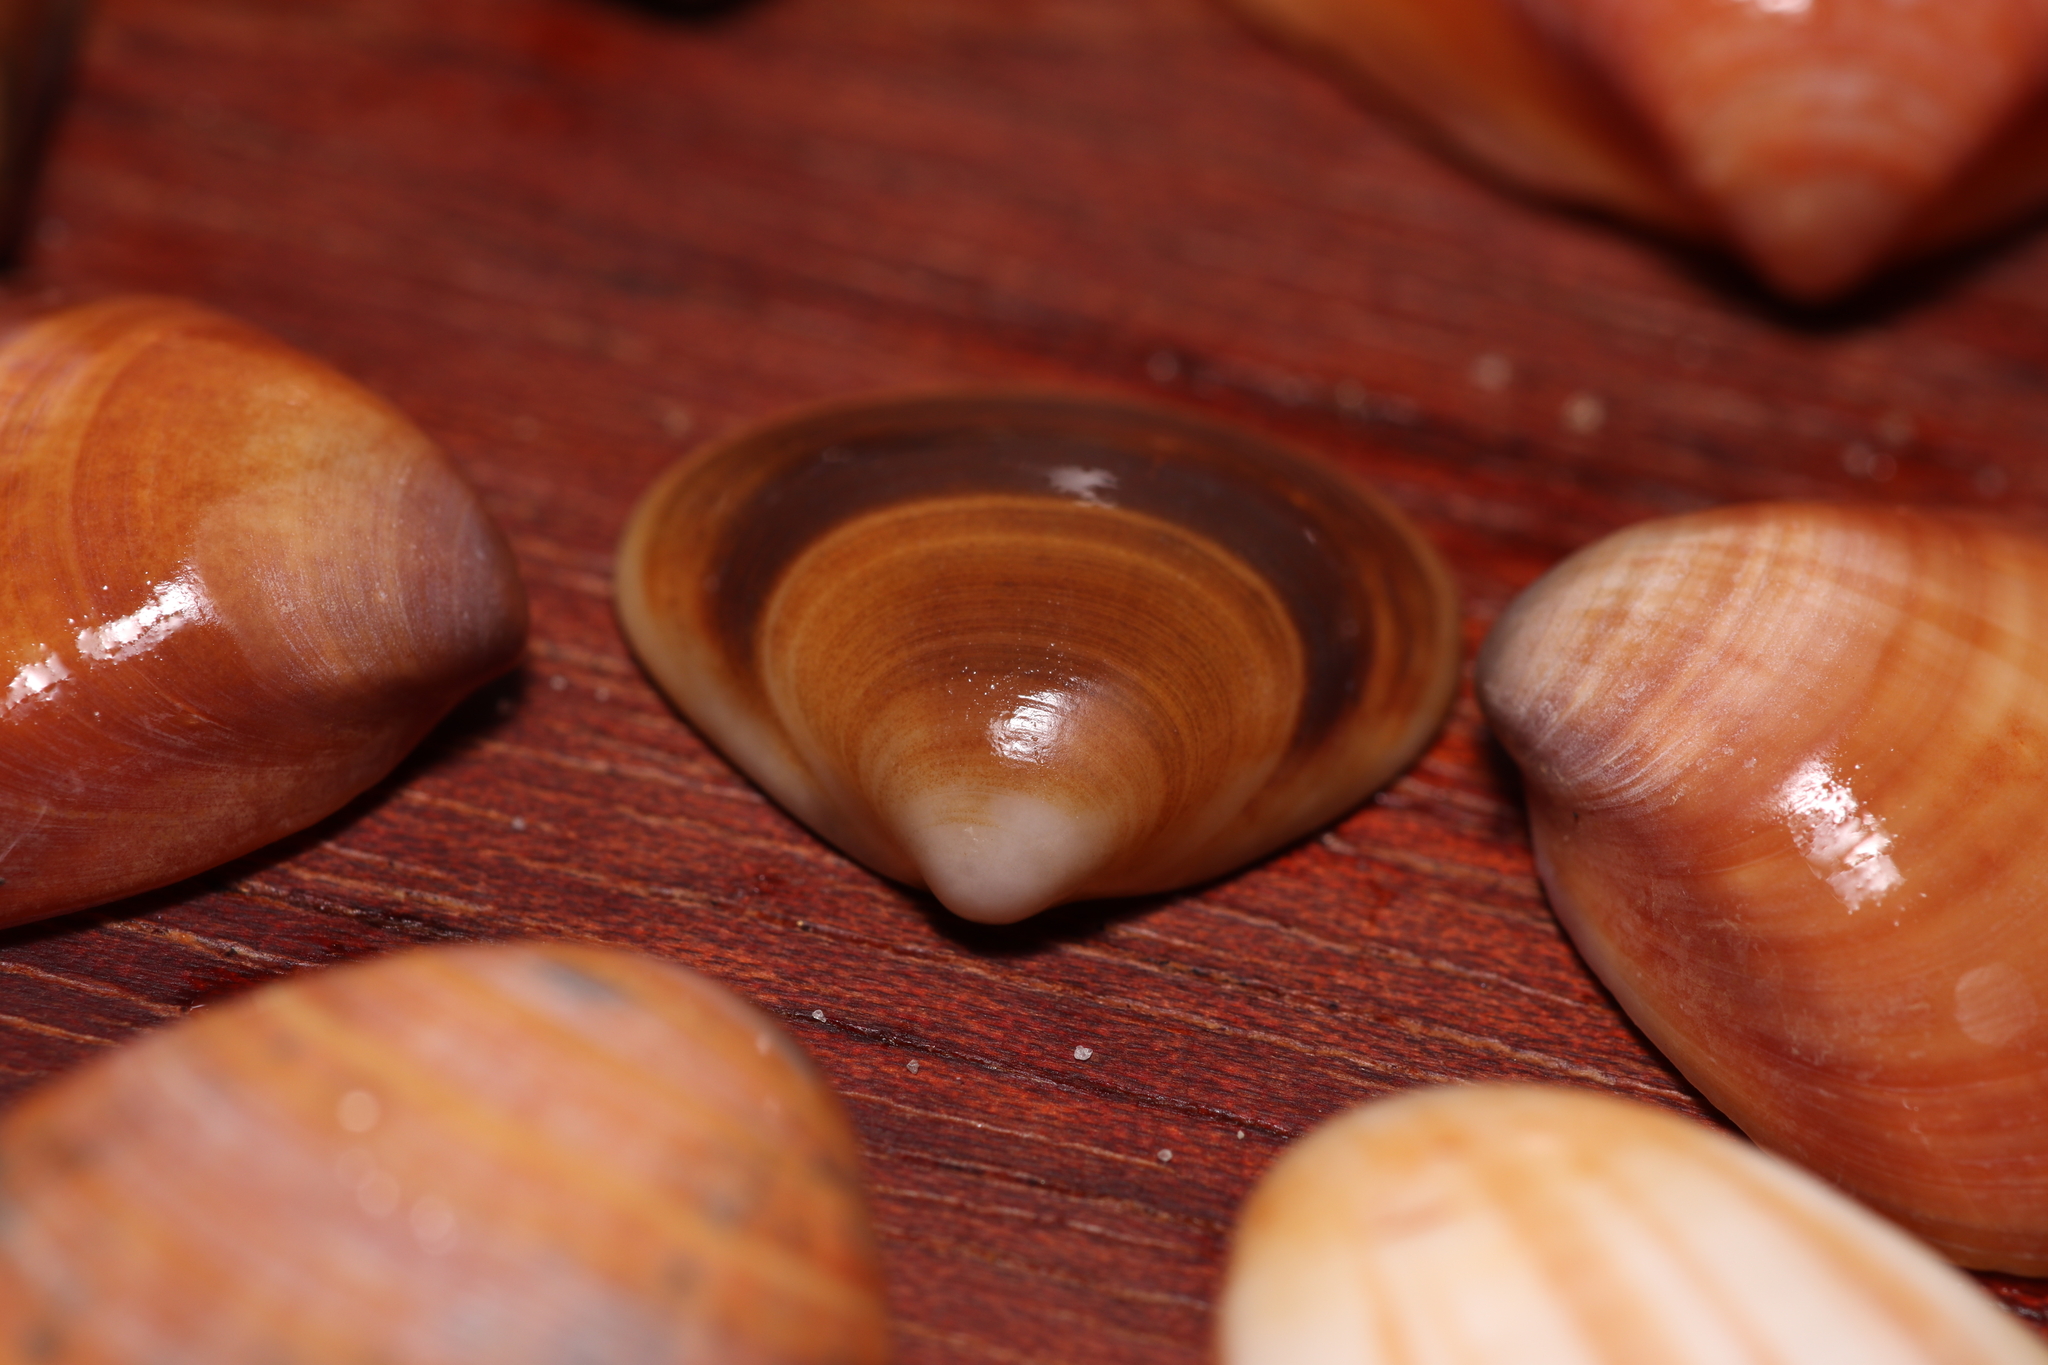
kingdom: Animalia
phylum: Mollusca
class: Bivalvia
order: Venerida
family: Veneridae
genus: Tivela
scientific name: Tivela mactroides
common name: Trigonal tivela
